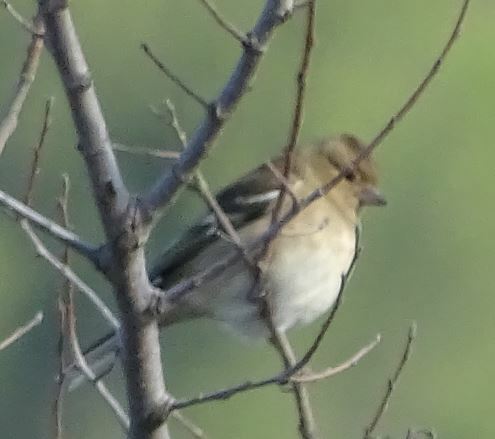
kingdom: Animalia
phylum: Chordata
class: Aves
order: Passeriformes
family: Fringillidae
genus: Fringilla
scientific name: Fringilla coelebs
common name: Common chaffinch
